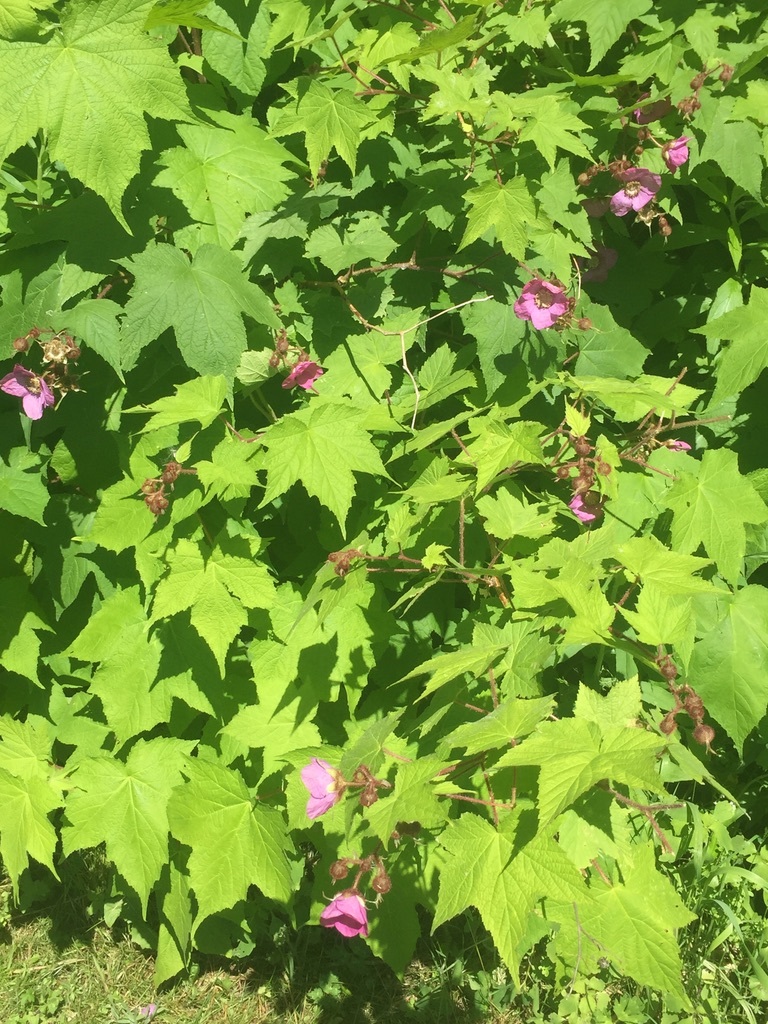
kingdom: Plantae
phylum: Tracheophyta
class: Magnoliopsida
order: Rosales
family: Rosaceae
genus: Rubus
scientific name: Rubus odoratus
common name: Purple-flowered raspberry
